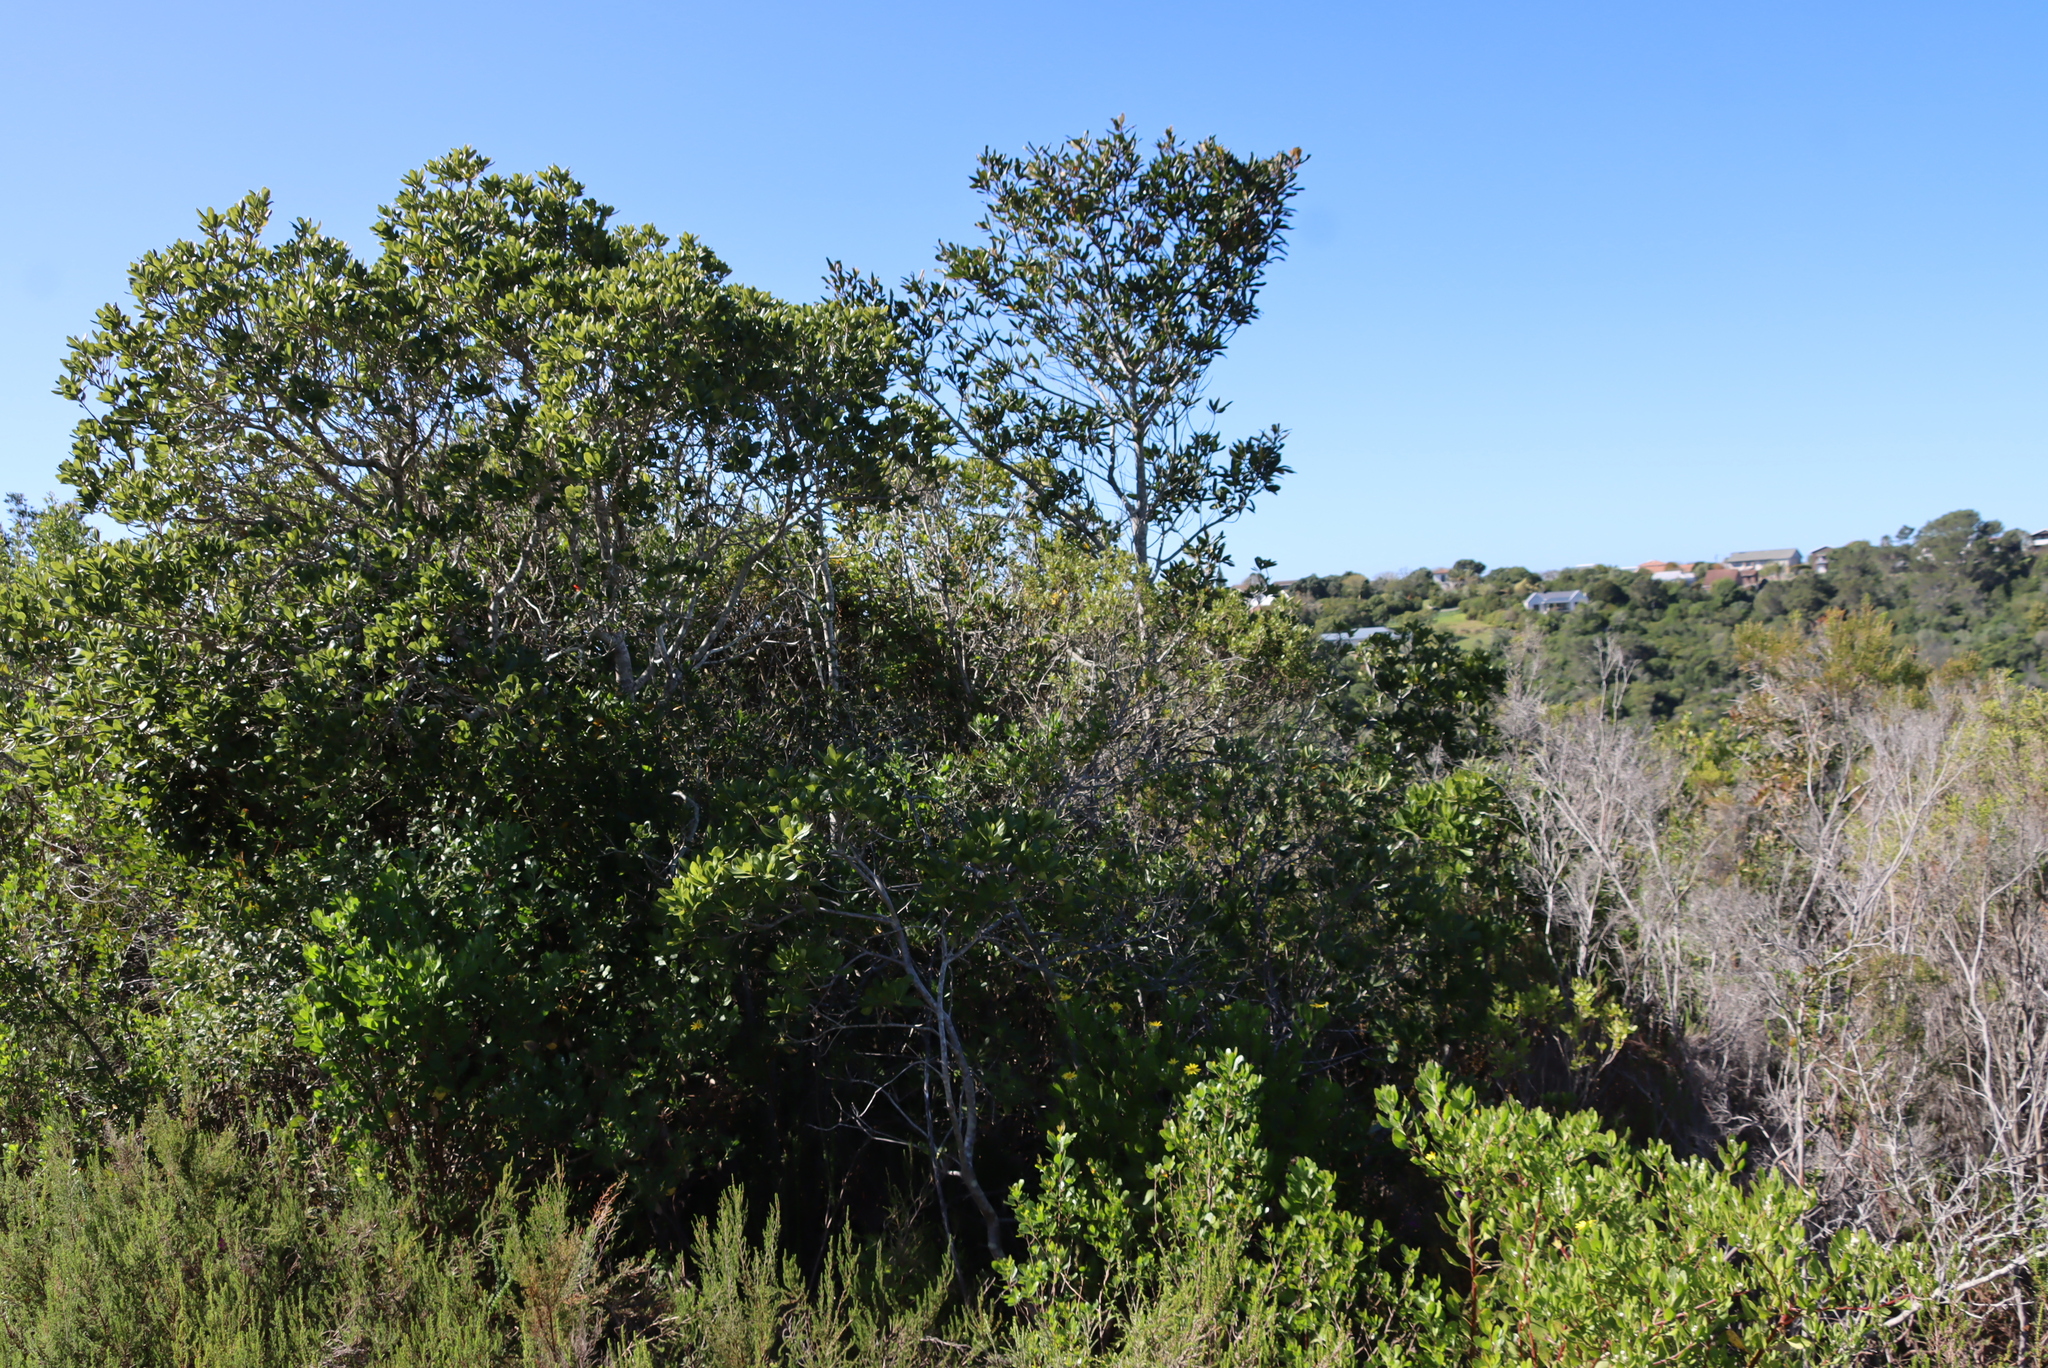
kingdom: Plantae
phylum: Tracheophyta
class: Magnoliopsida
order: Ericales
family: Primulaceae
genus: Myrsine
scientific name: Myrsine melanophloeos
